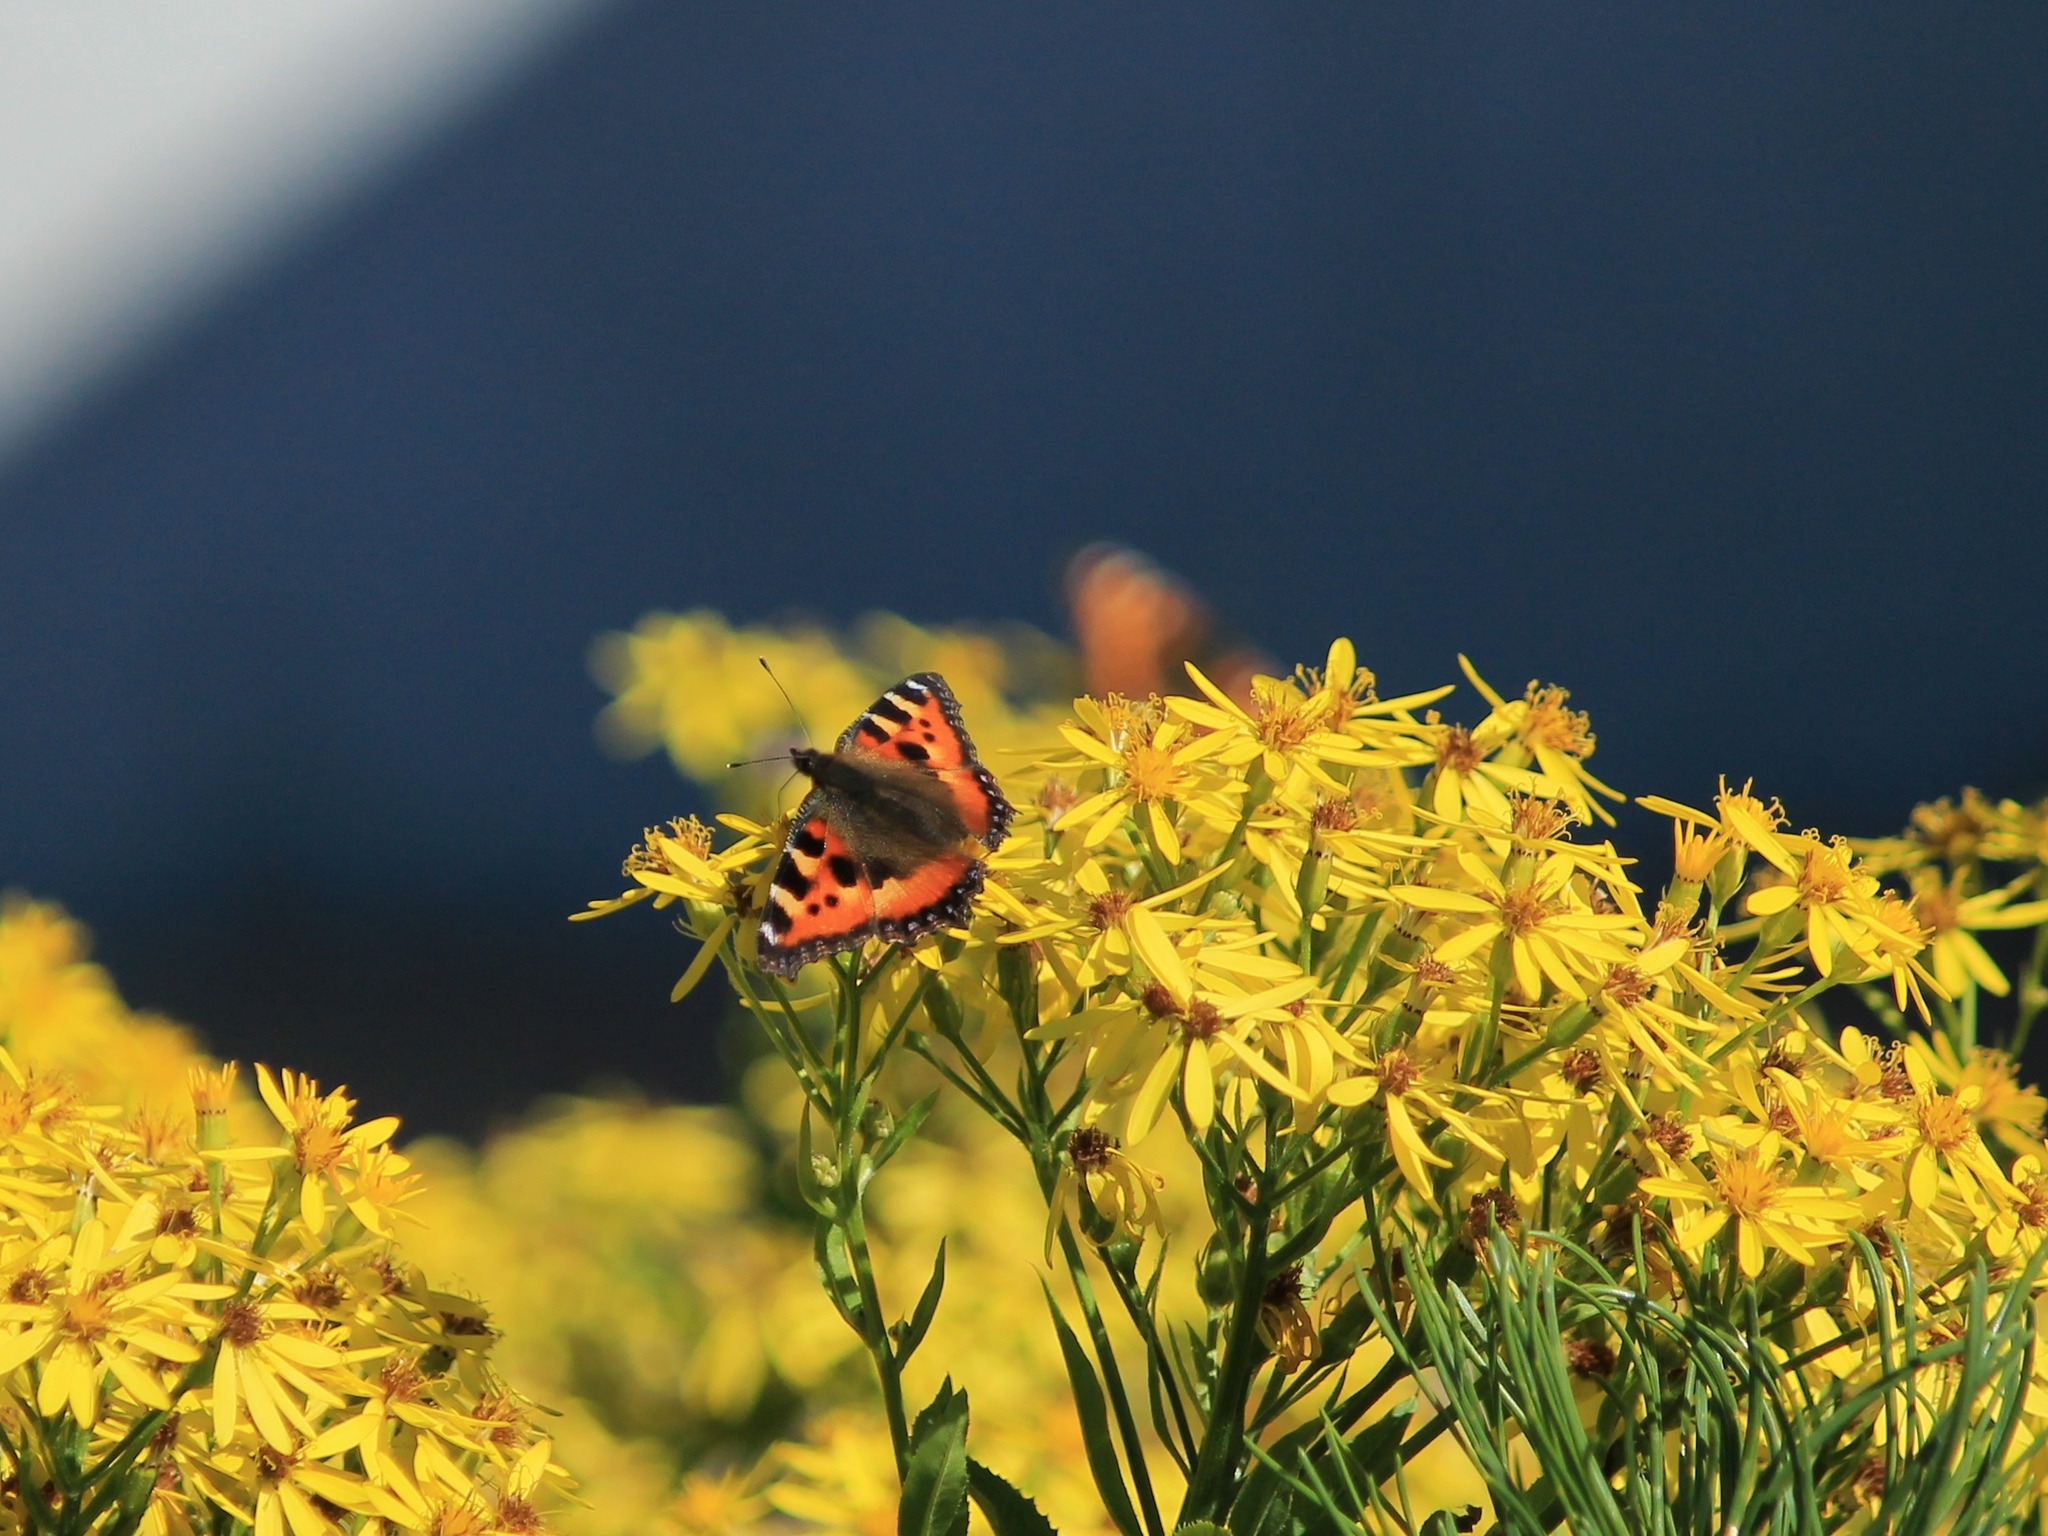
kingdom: Animalia
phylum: Arthropoda
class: Insecta
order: Lepidoptera
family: Nymphalidae
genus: Aglais
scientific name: Aglais urticae
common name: Small tortoiseshell
